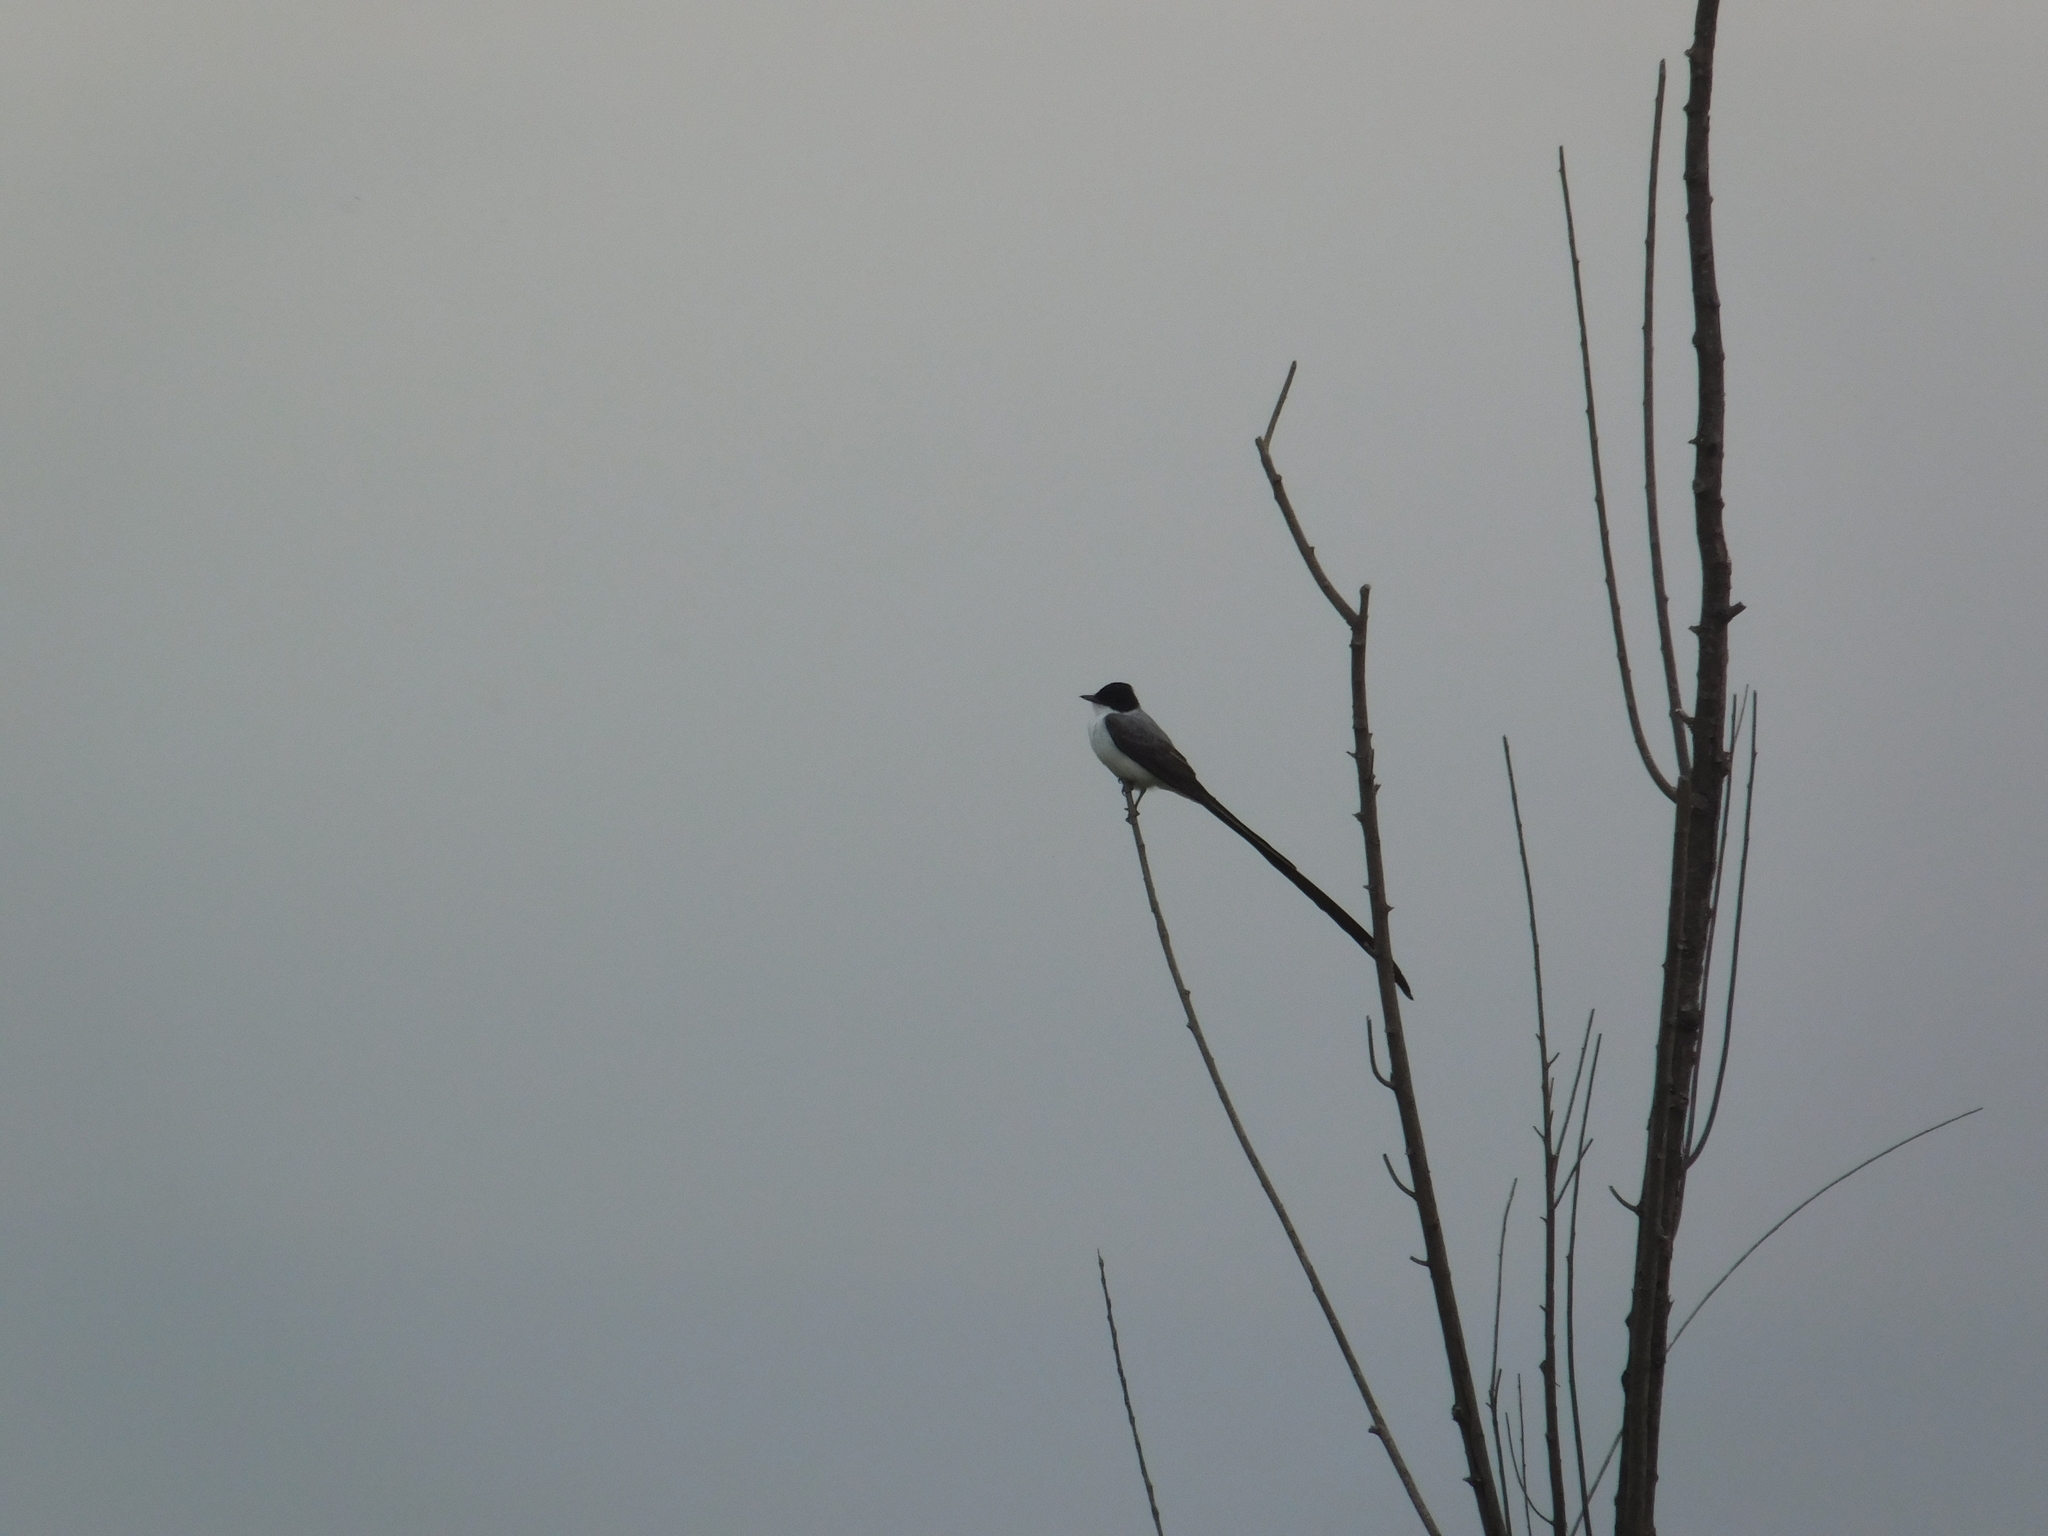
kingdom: Animalia
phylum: Chordata
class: Aves
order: Passeriformes
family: Tyrannidae
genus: Tyrannus
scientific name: Tyrannus savana
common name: Fork-tailed flycatcher
